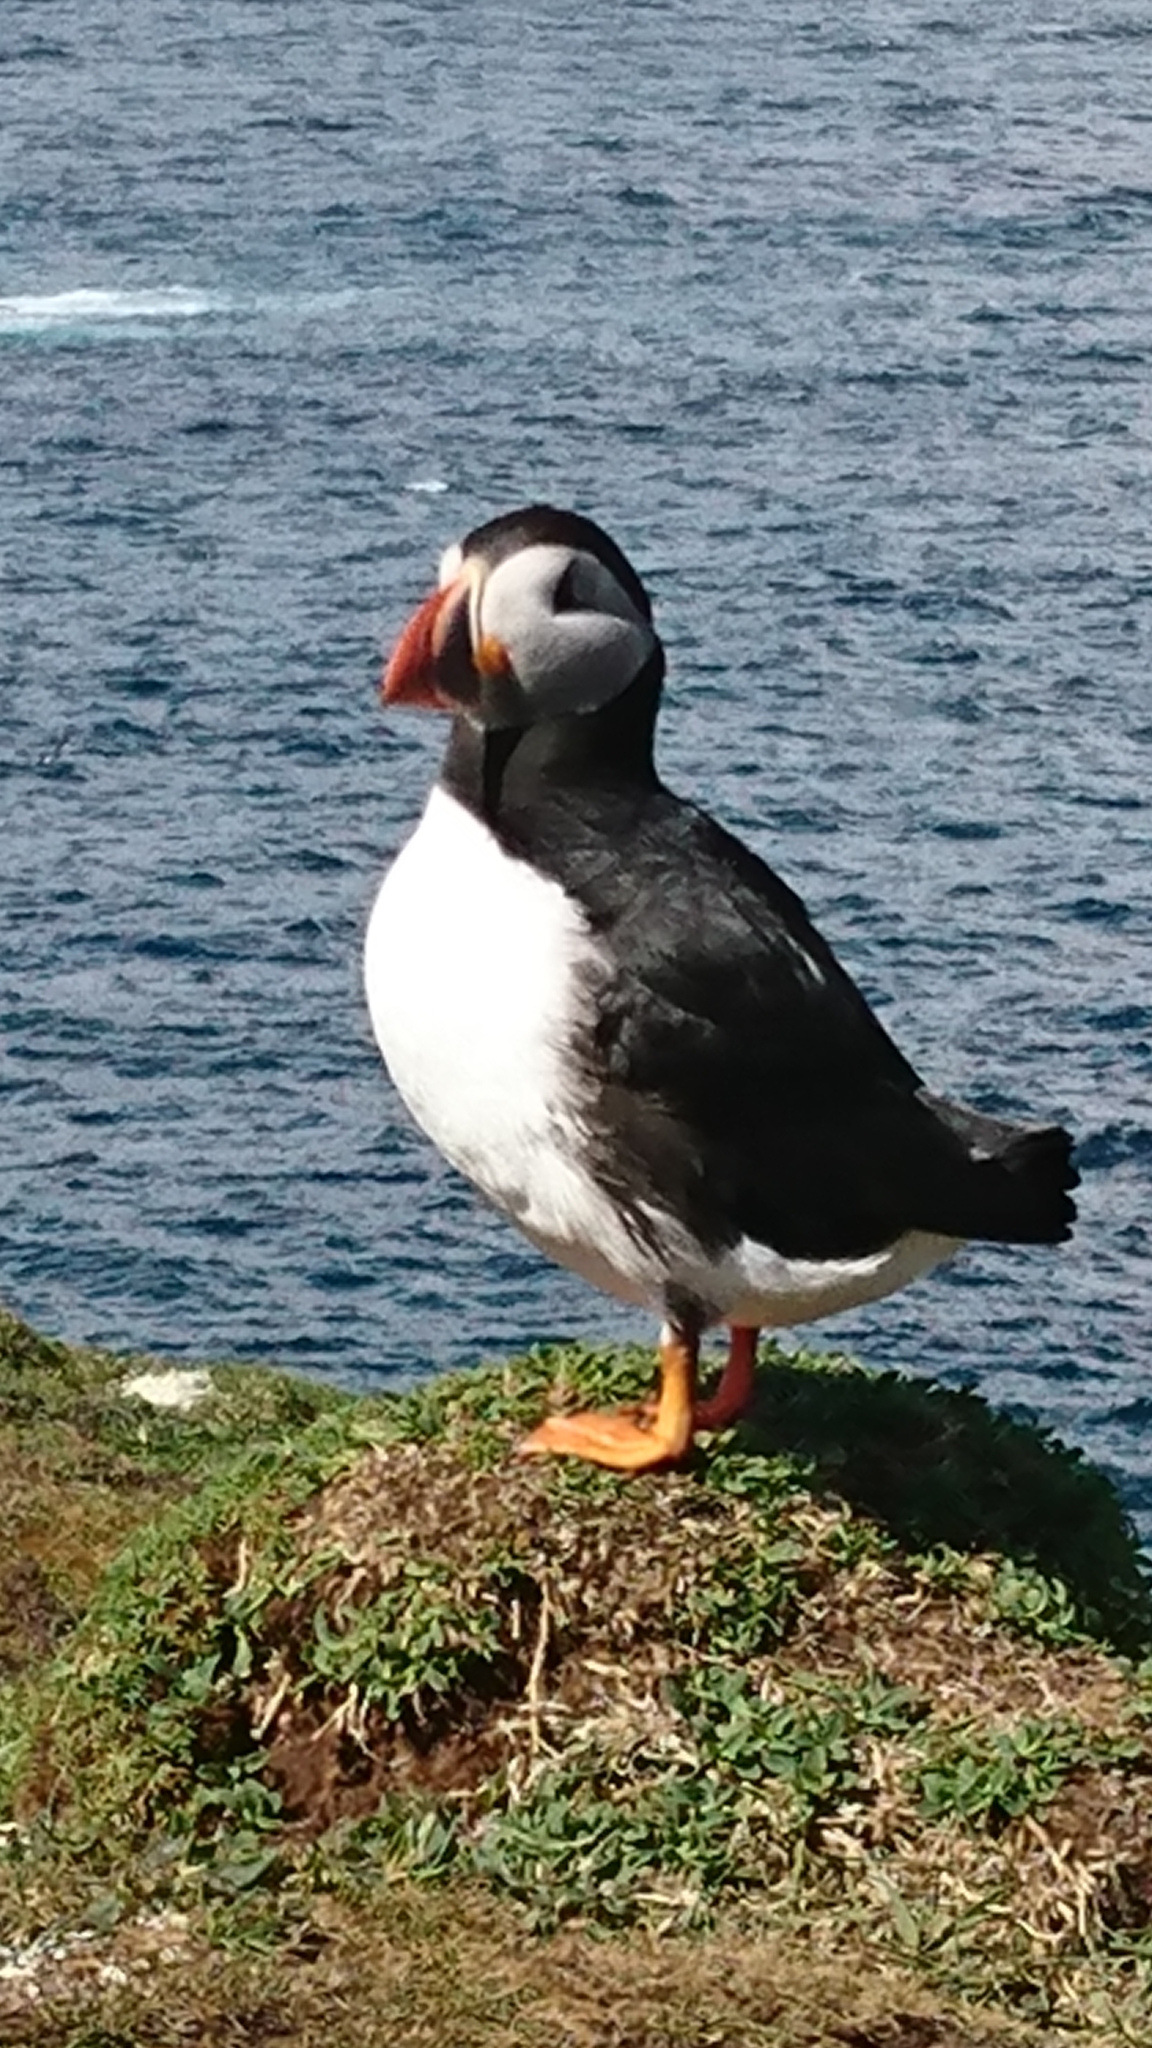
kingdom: Animalia
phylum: Chordata
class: Aves
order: Charadriiformes
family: Alcidae
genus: Fratercula
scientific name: Fratercula arctica
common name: Atlantic puffin
